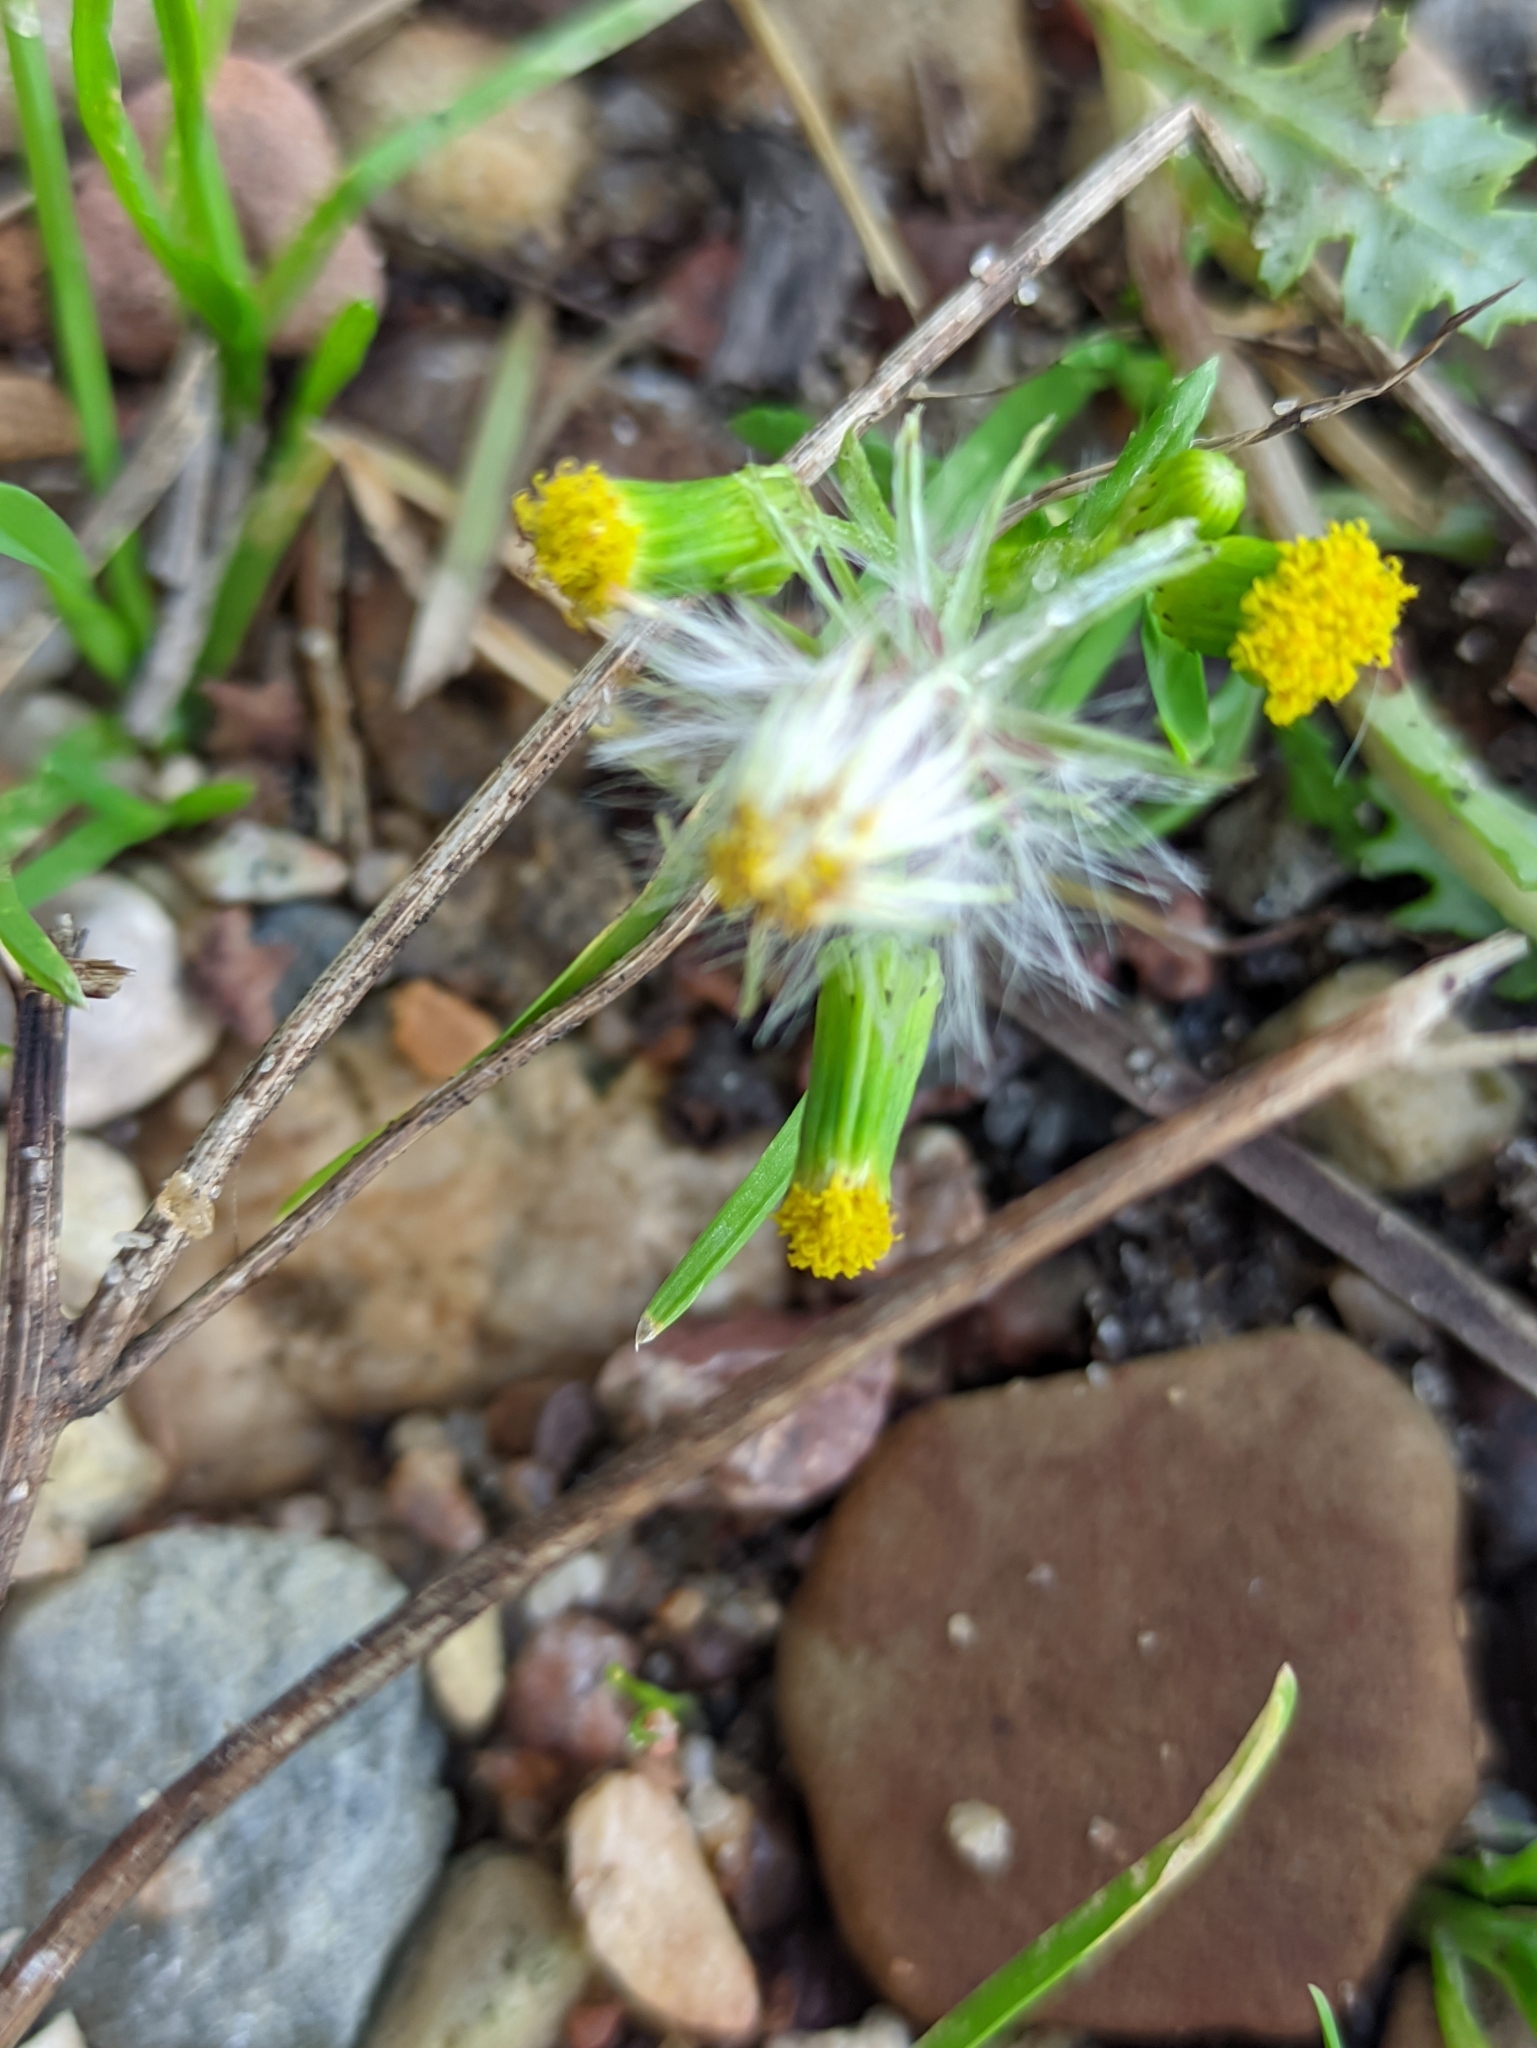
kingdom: Plantae
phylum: Tracheophyta
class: Magnoliopsida
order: Asterales
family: Asteraceae
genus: Senecio
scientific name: Senecio vulgaris
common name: Old-man-in-the-spring
